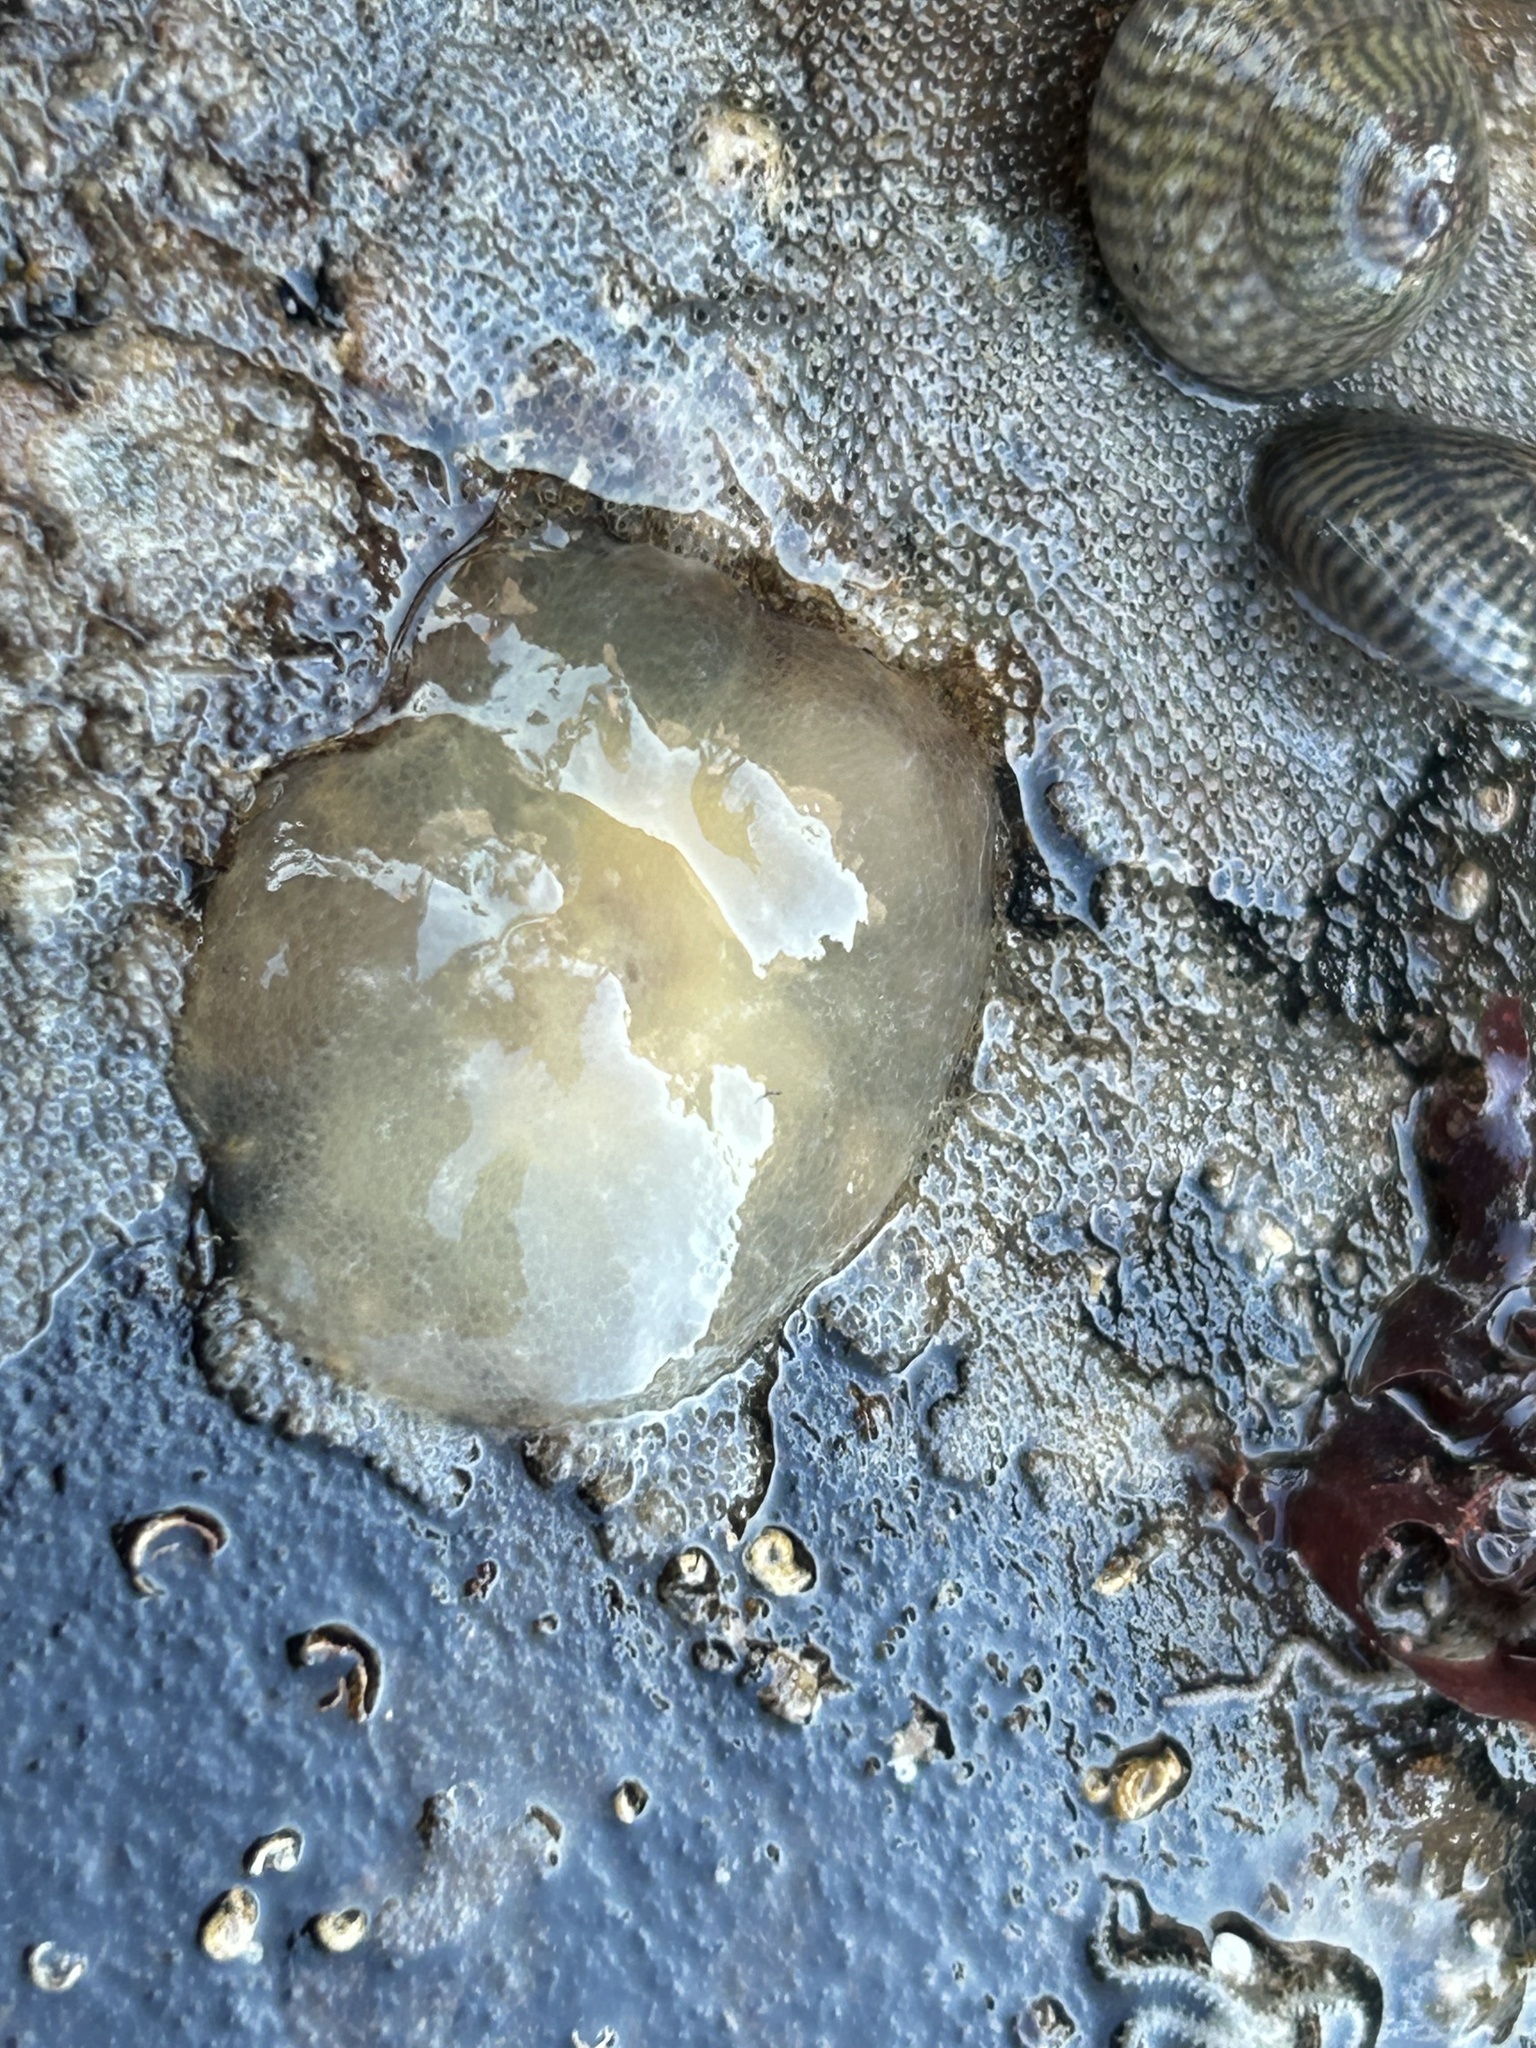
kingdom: Animalia
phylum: Mollusca
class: Gastropoda
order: Pleurobranchida
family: Pleurobranchidae
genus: Berthella
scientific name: Berthella plumula
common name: Yellow-plumed sea slug
